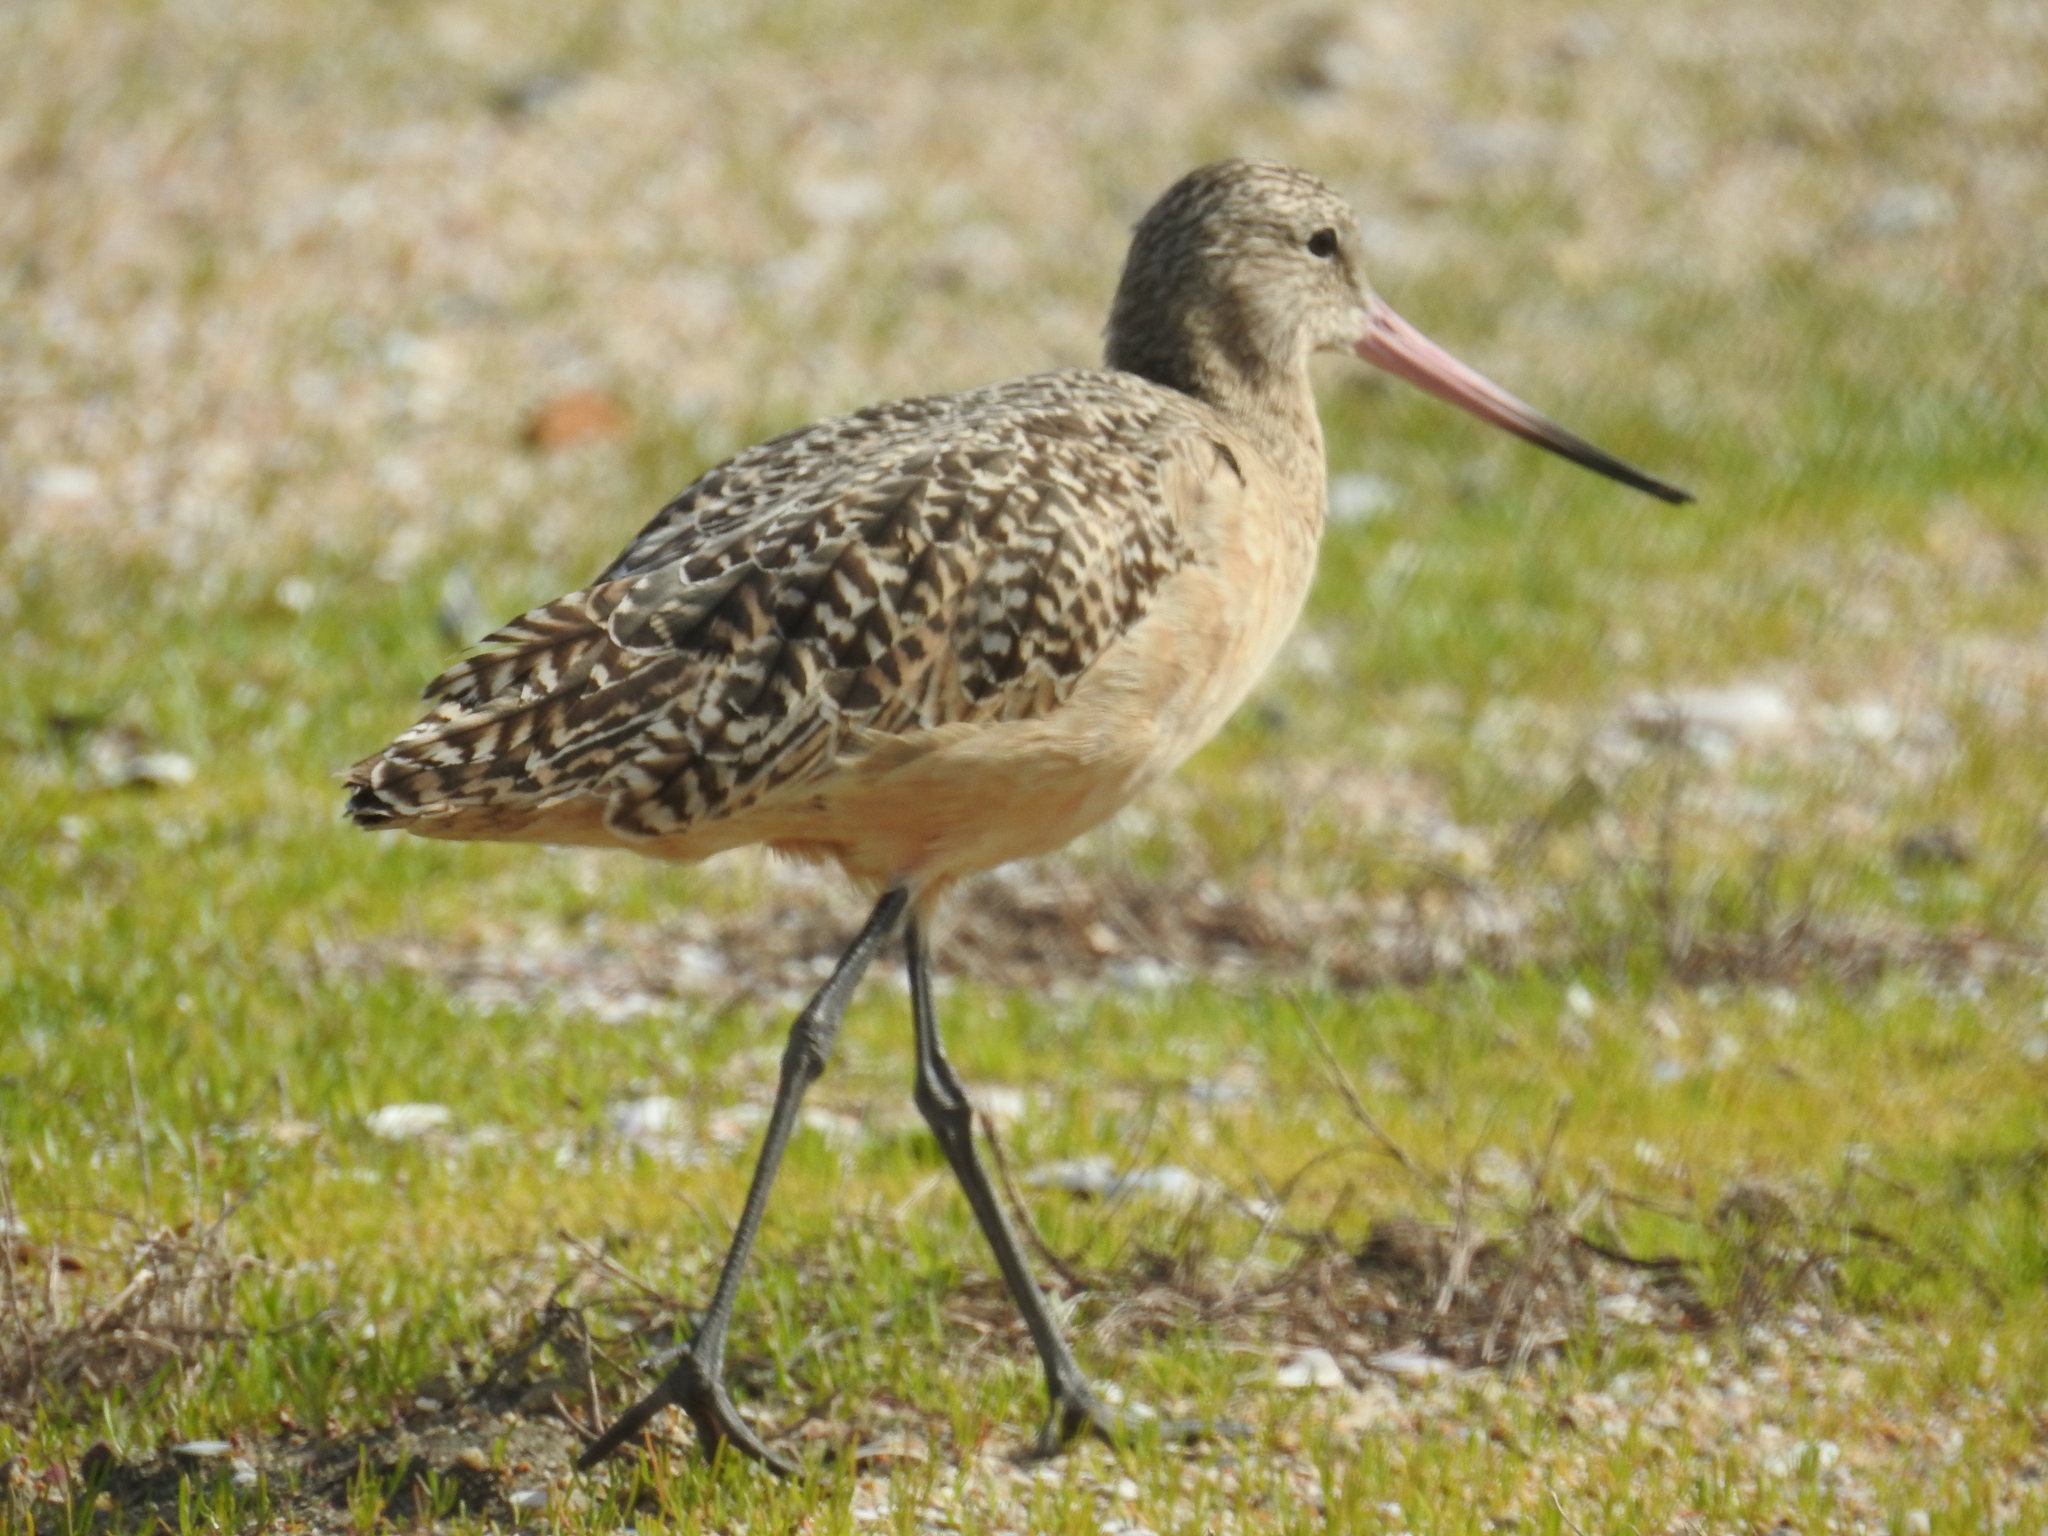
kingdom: Animalia
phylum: Chordata
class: Aves
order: Charadriiformes
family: Scolopacidae
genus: Limosa
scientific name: Limosa fedoa
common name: Marbled godwit
